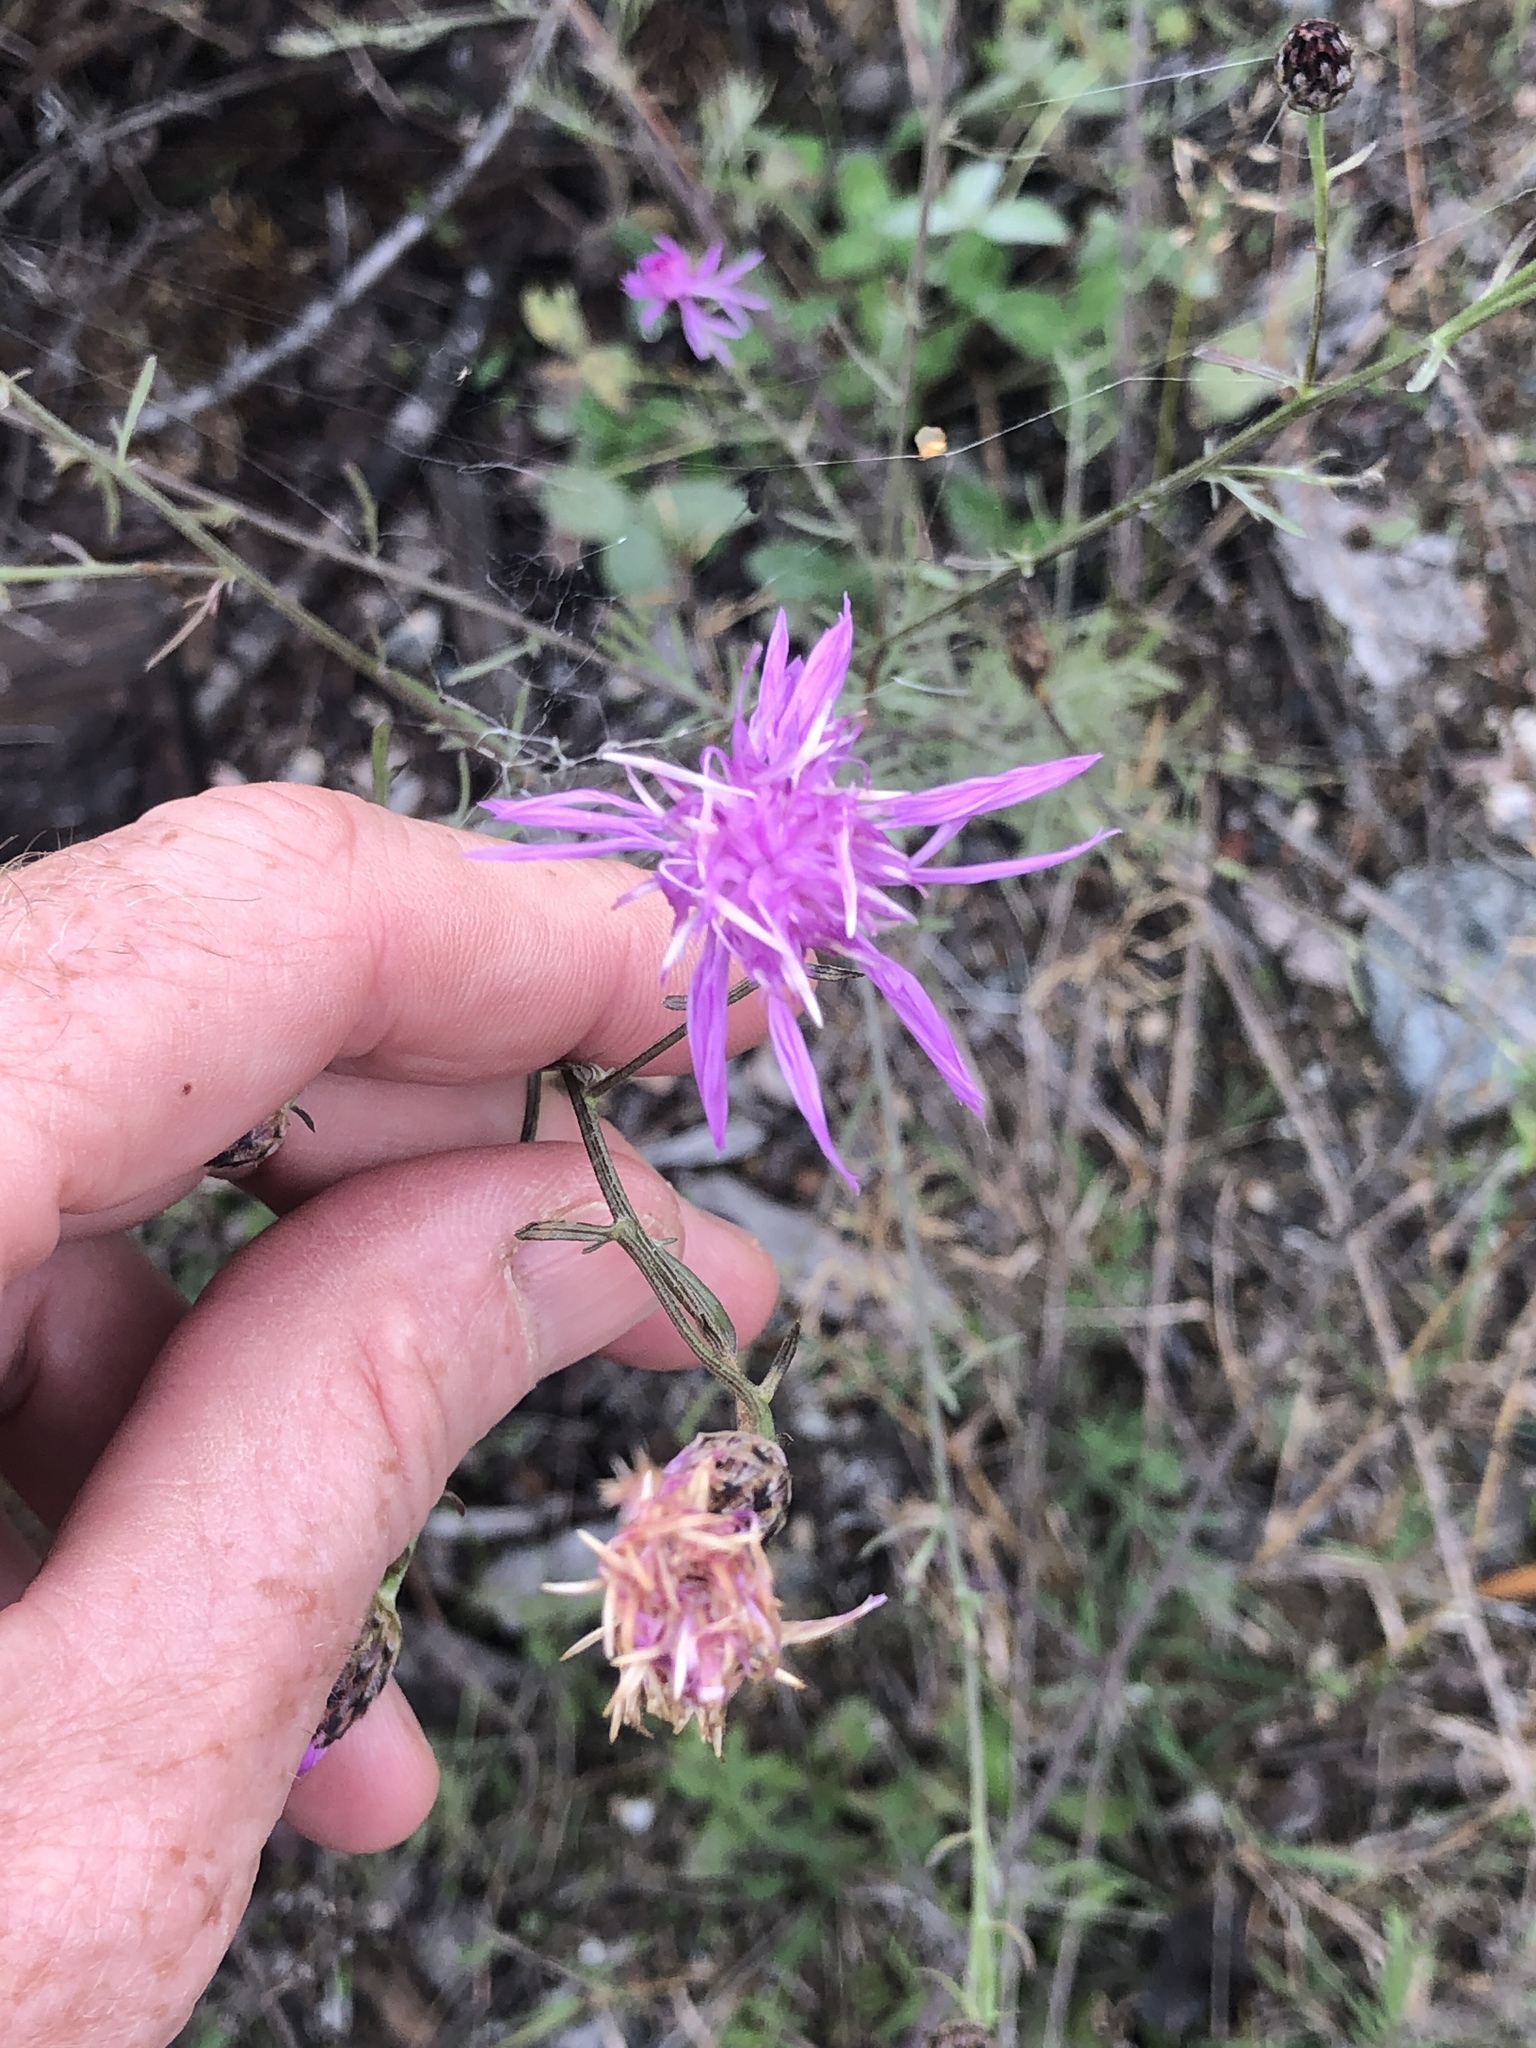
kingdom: Plantae
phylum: Tracheophyta
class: Magnoliopsida
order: Asterales
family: Asteraceae
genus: Centaurea
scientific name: Centaurea stoebe
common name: Spotted knapweed
